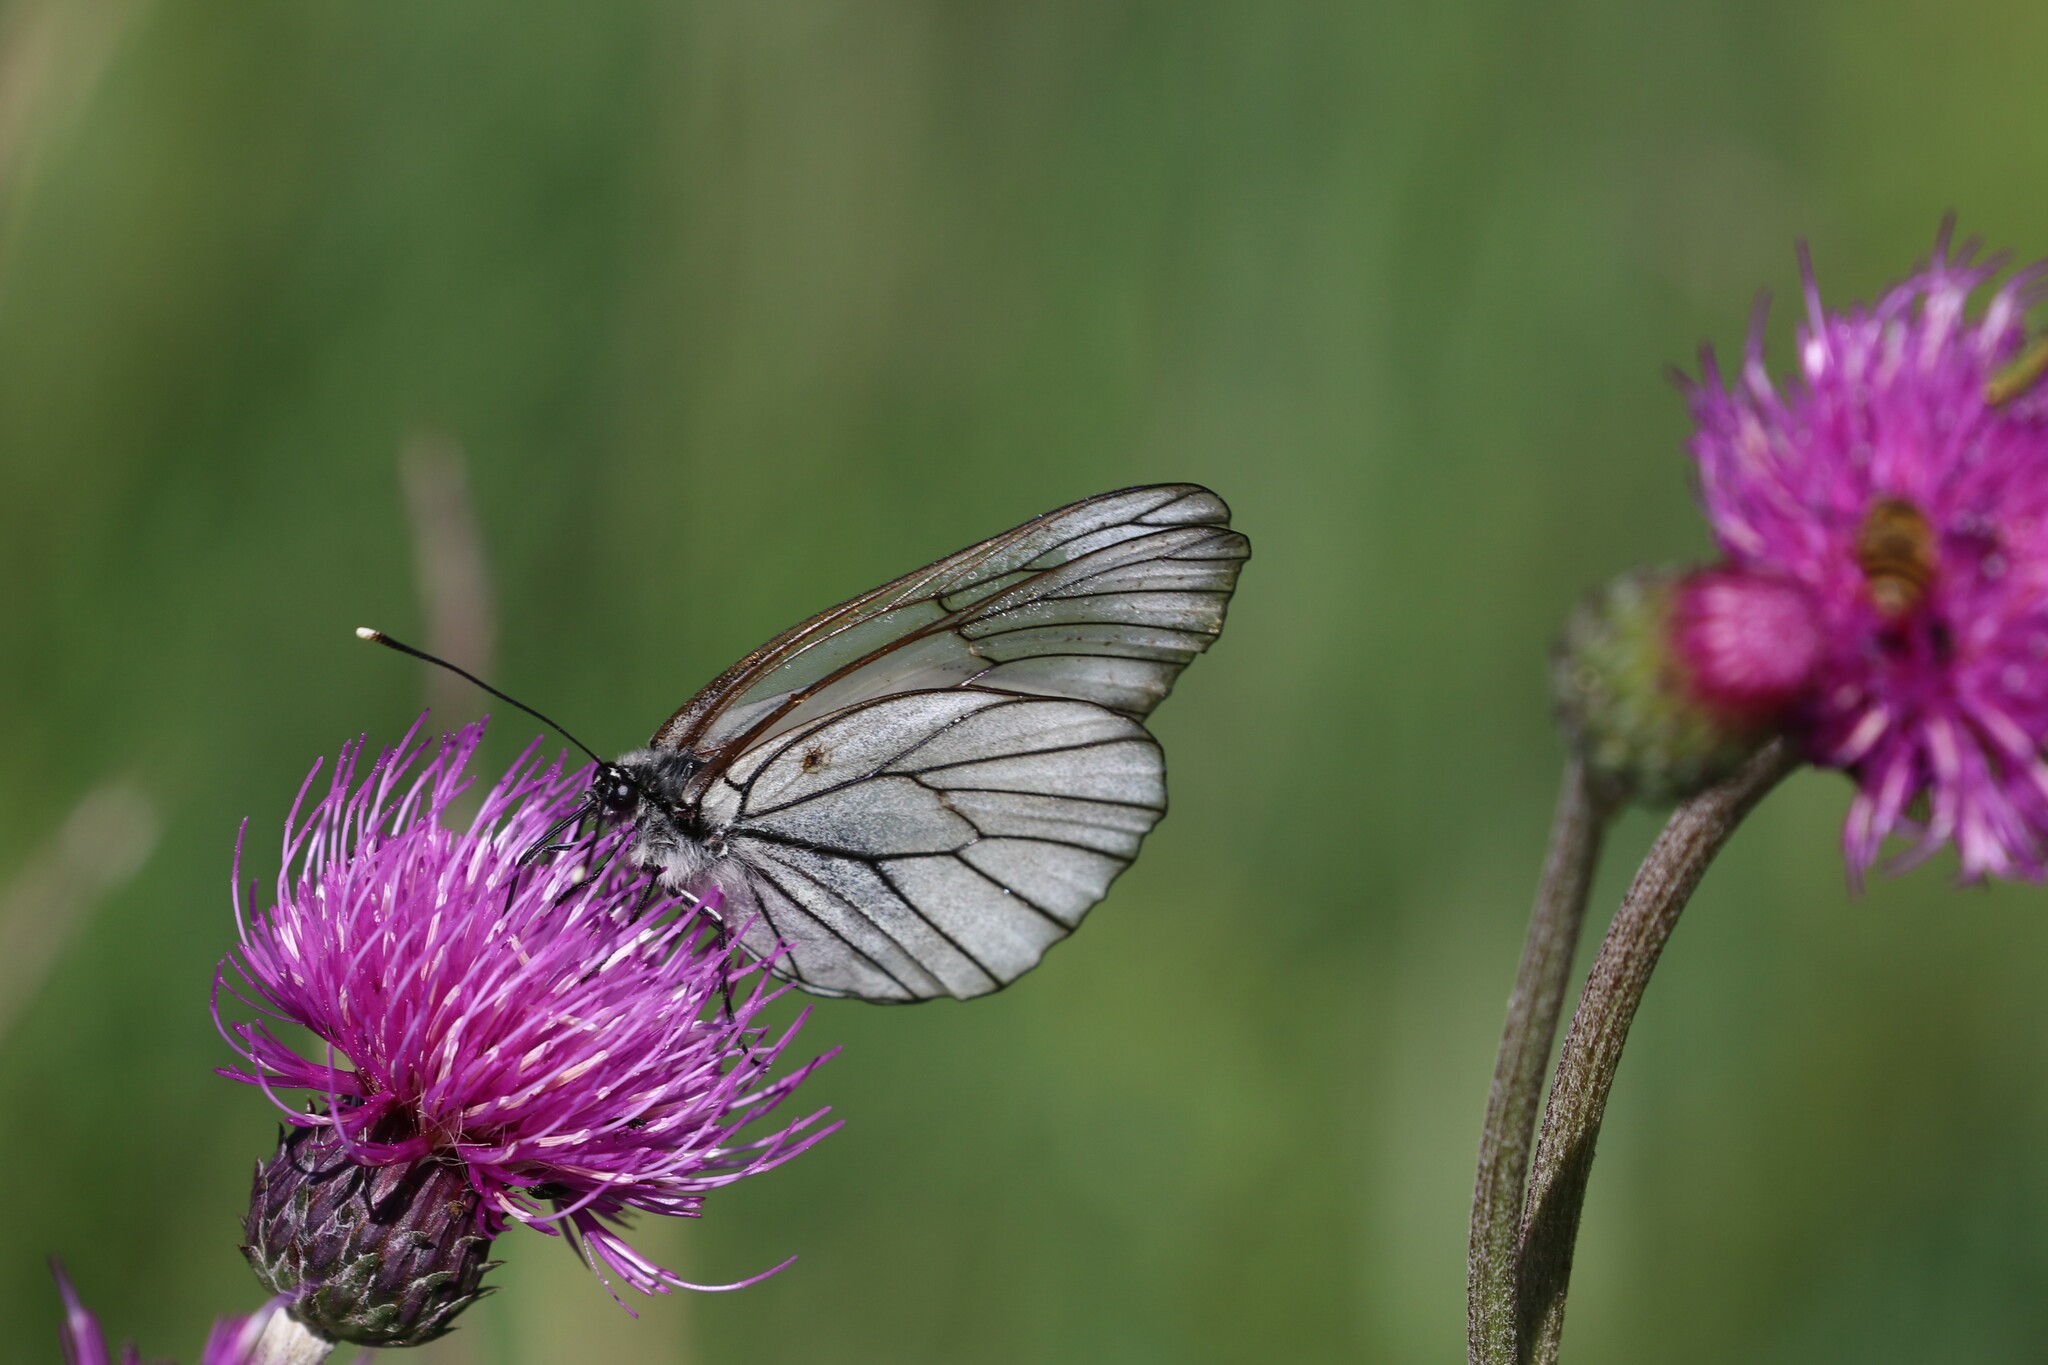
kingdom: Animalia
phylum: Arthropoda
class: Insecta
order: Lepidoptera
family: Pieridae
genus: Aporia
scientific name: Aporia crataegi
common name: Black-veined white
